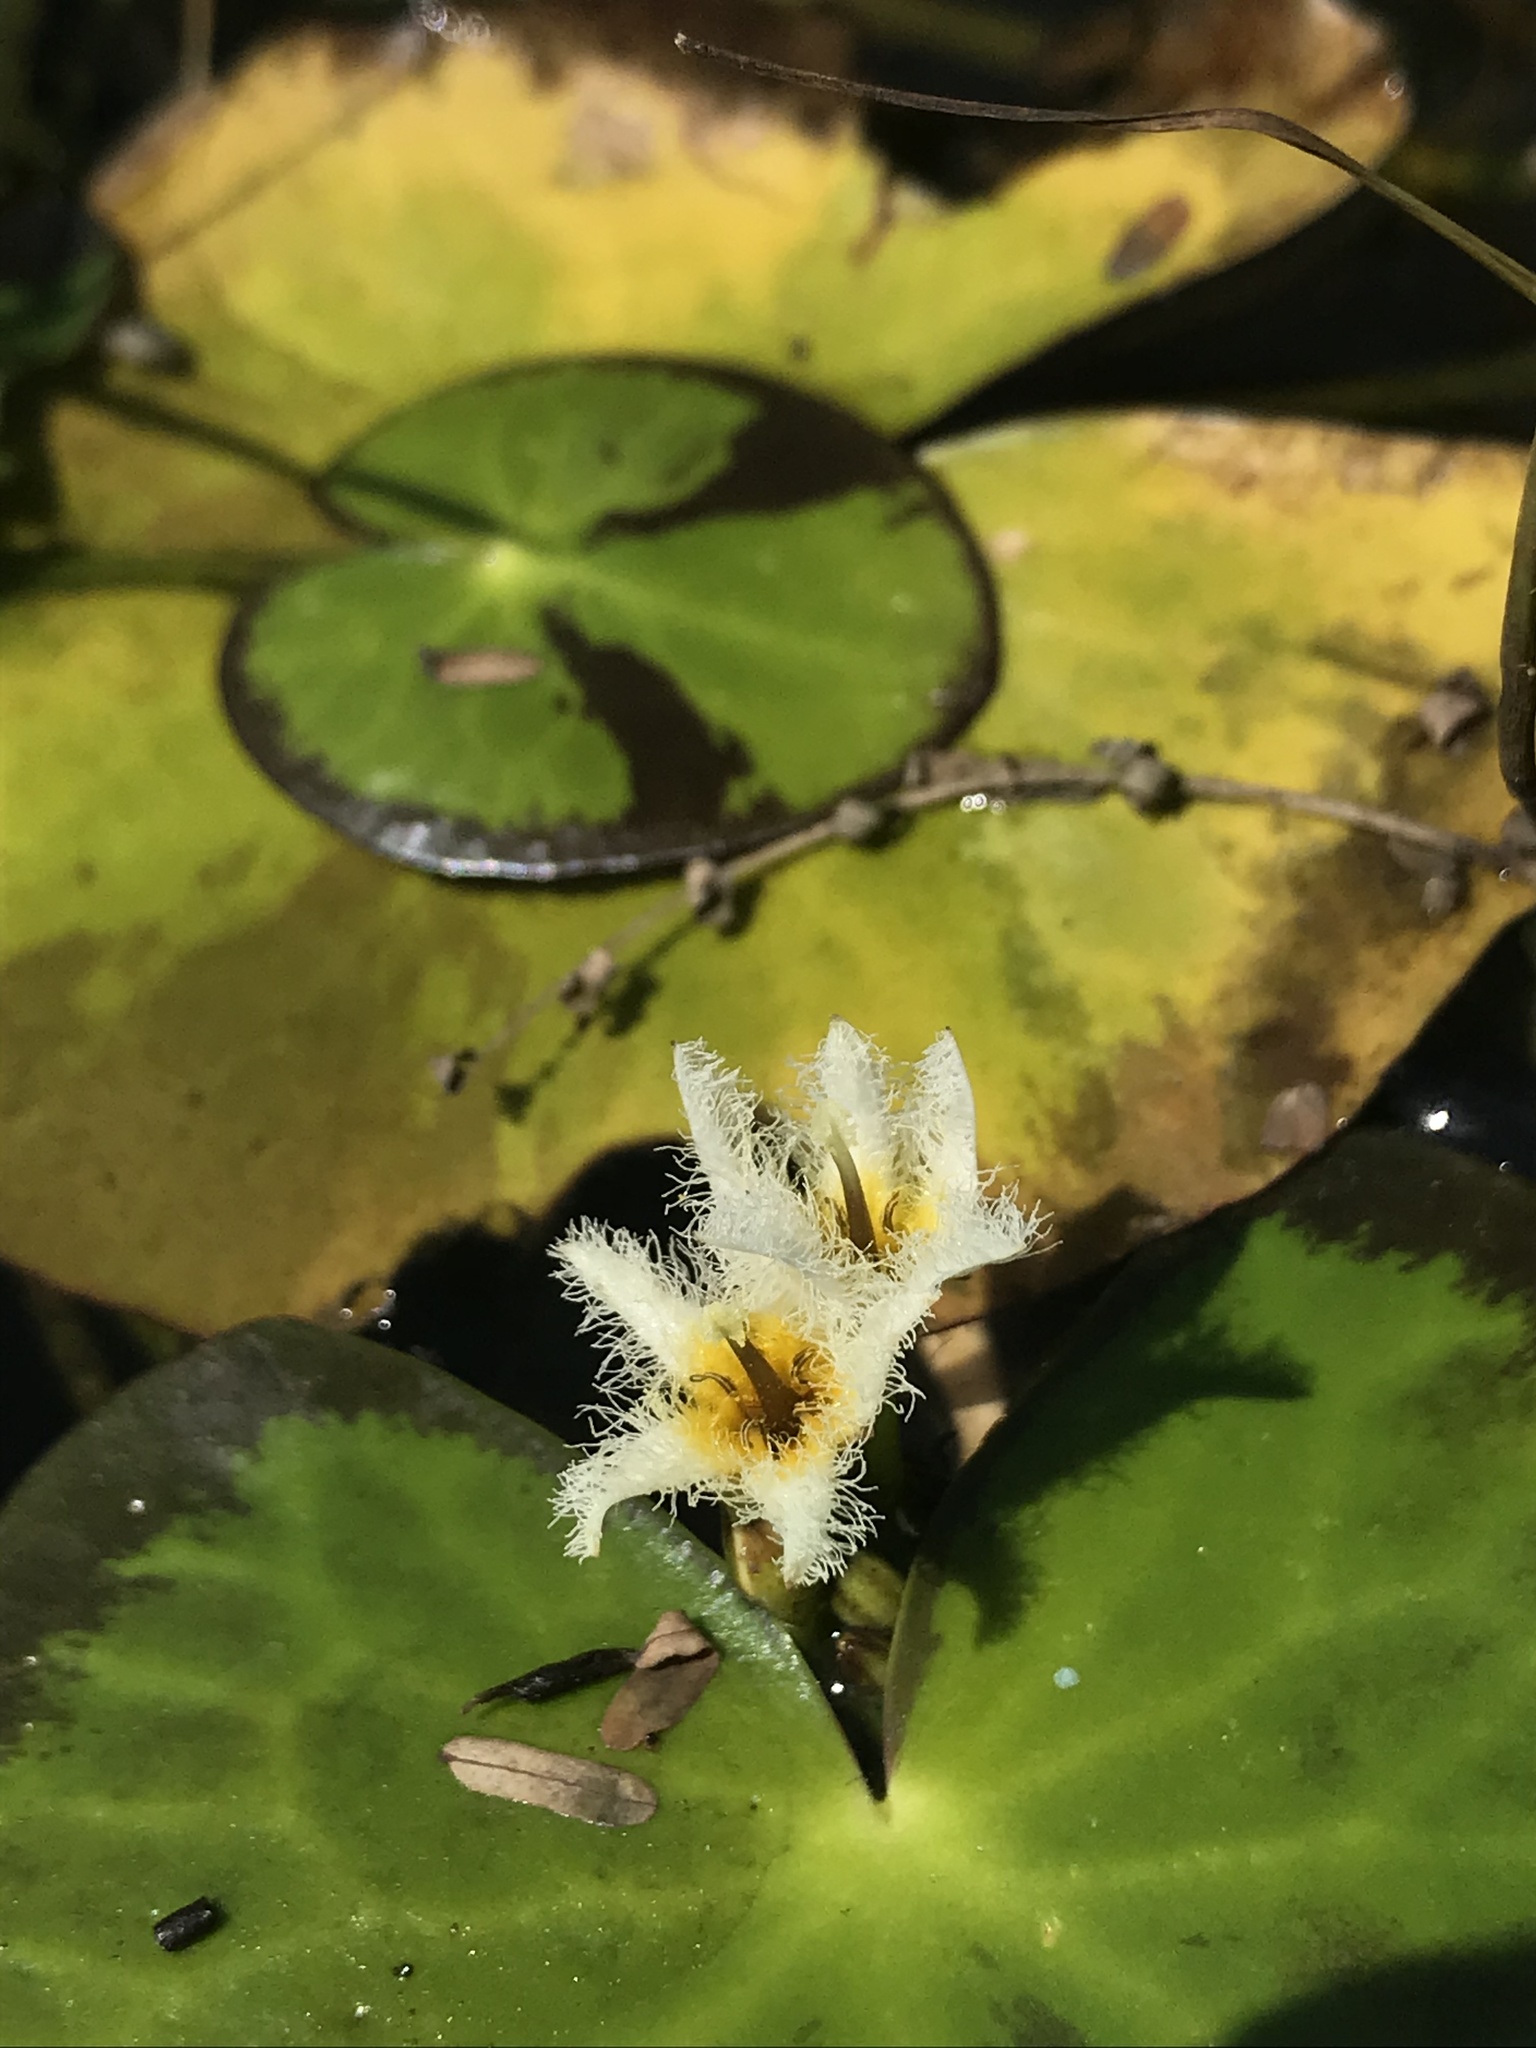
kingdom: Plantae
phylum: Tracheophyta
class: Magnoliopsida
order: Asterales
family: Menyanthaceae
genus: Nymphoides
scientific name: Nymphoides humboldtiana
